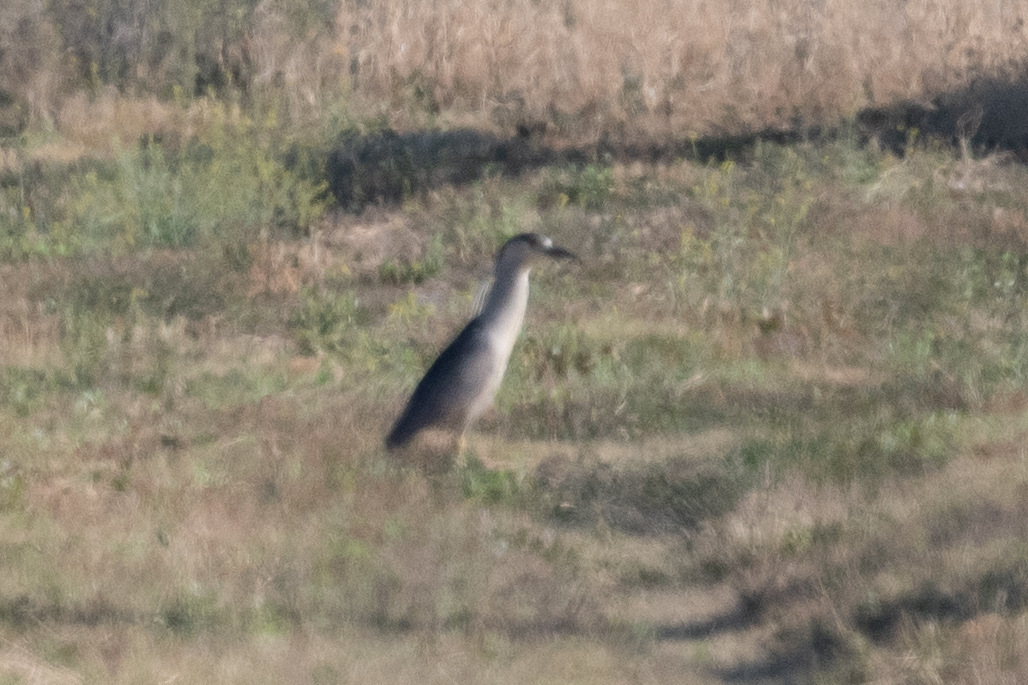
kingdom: Animalia
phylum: Chordata
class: Aves
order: Pelecaniformes
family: Ardeidae
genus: Nycticorax
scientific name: Nycticorax nycticorax
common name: Black-crowned night heron
